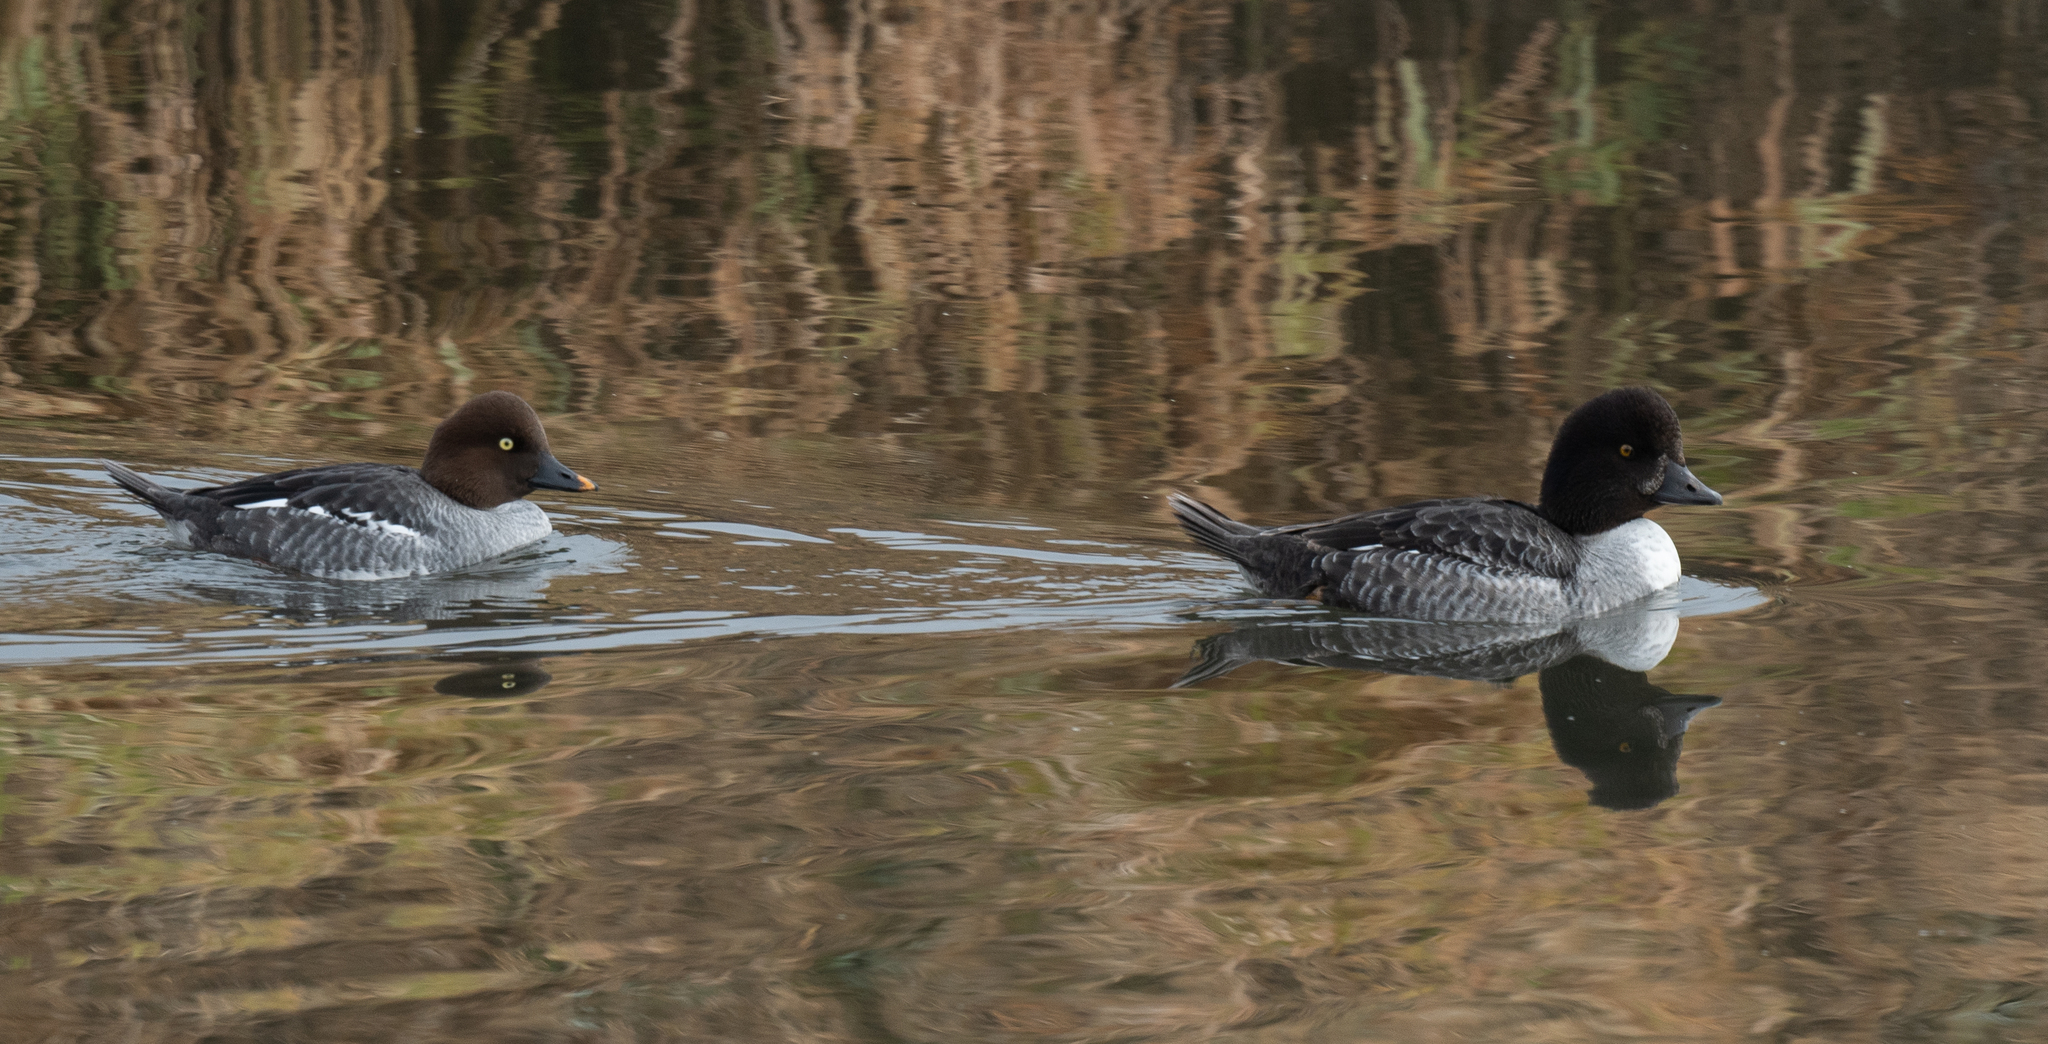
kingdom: Animalia
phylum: Chordata
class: Aves
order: Anseriformes
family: Anatidae
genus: Bucephala
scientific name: Bucephala clangula
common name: Common goldeneye
